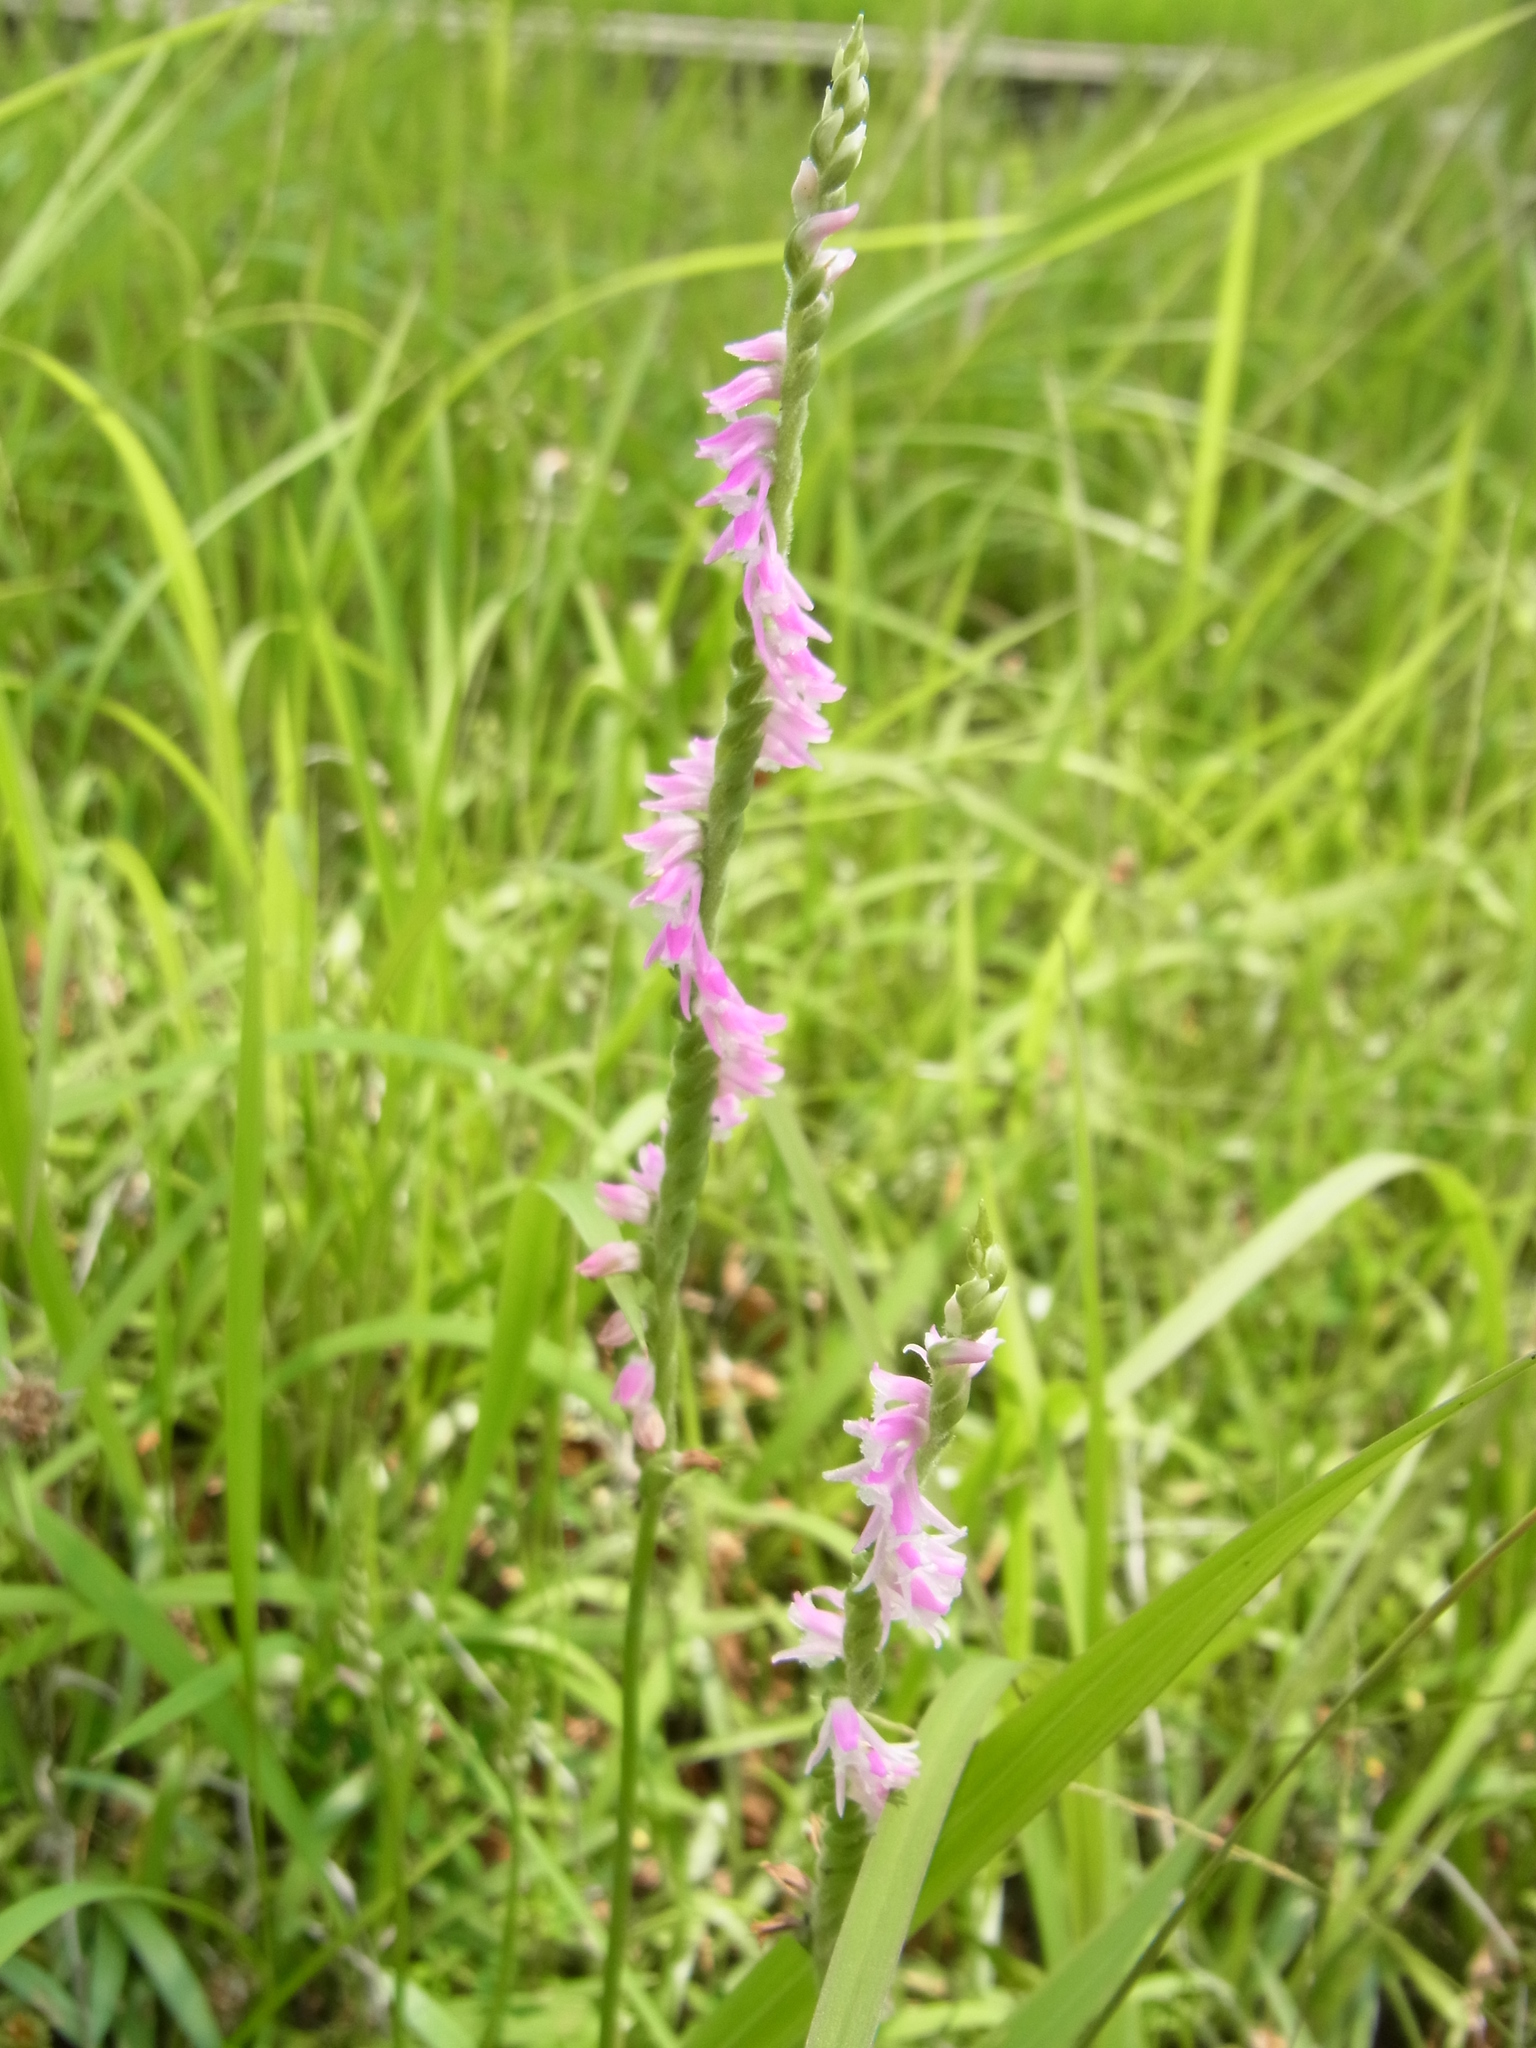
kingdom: Plantae
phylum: Tracheophyta
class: Liliopsida
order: Asparagales
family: Orchidaceae
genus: Spiranthes
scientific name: Spiranthes australis
